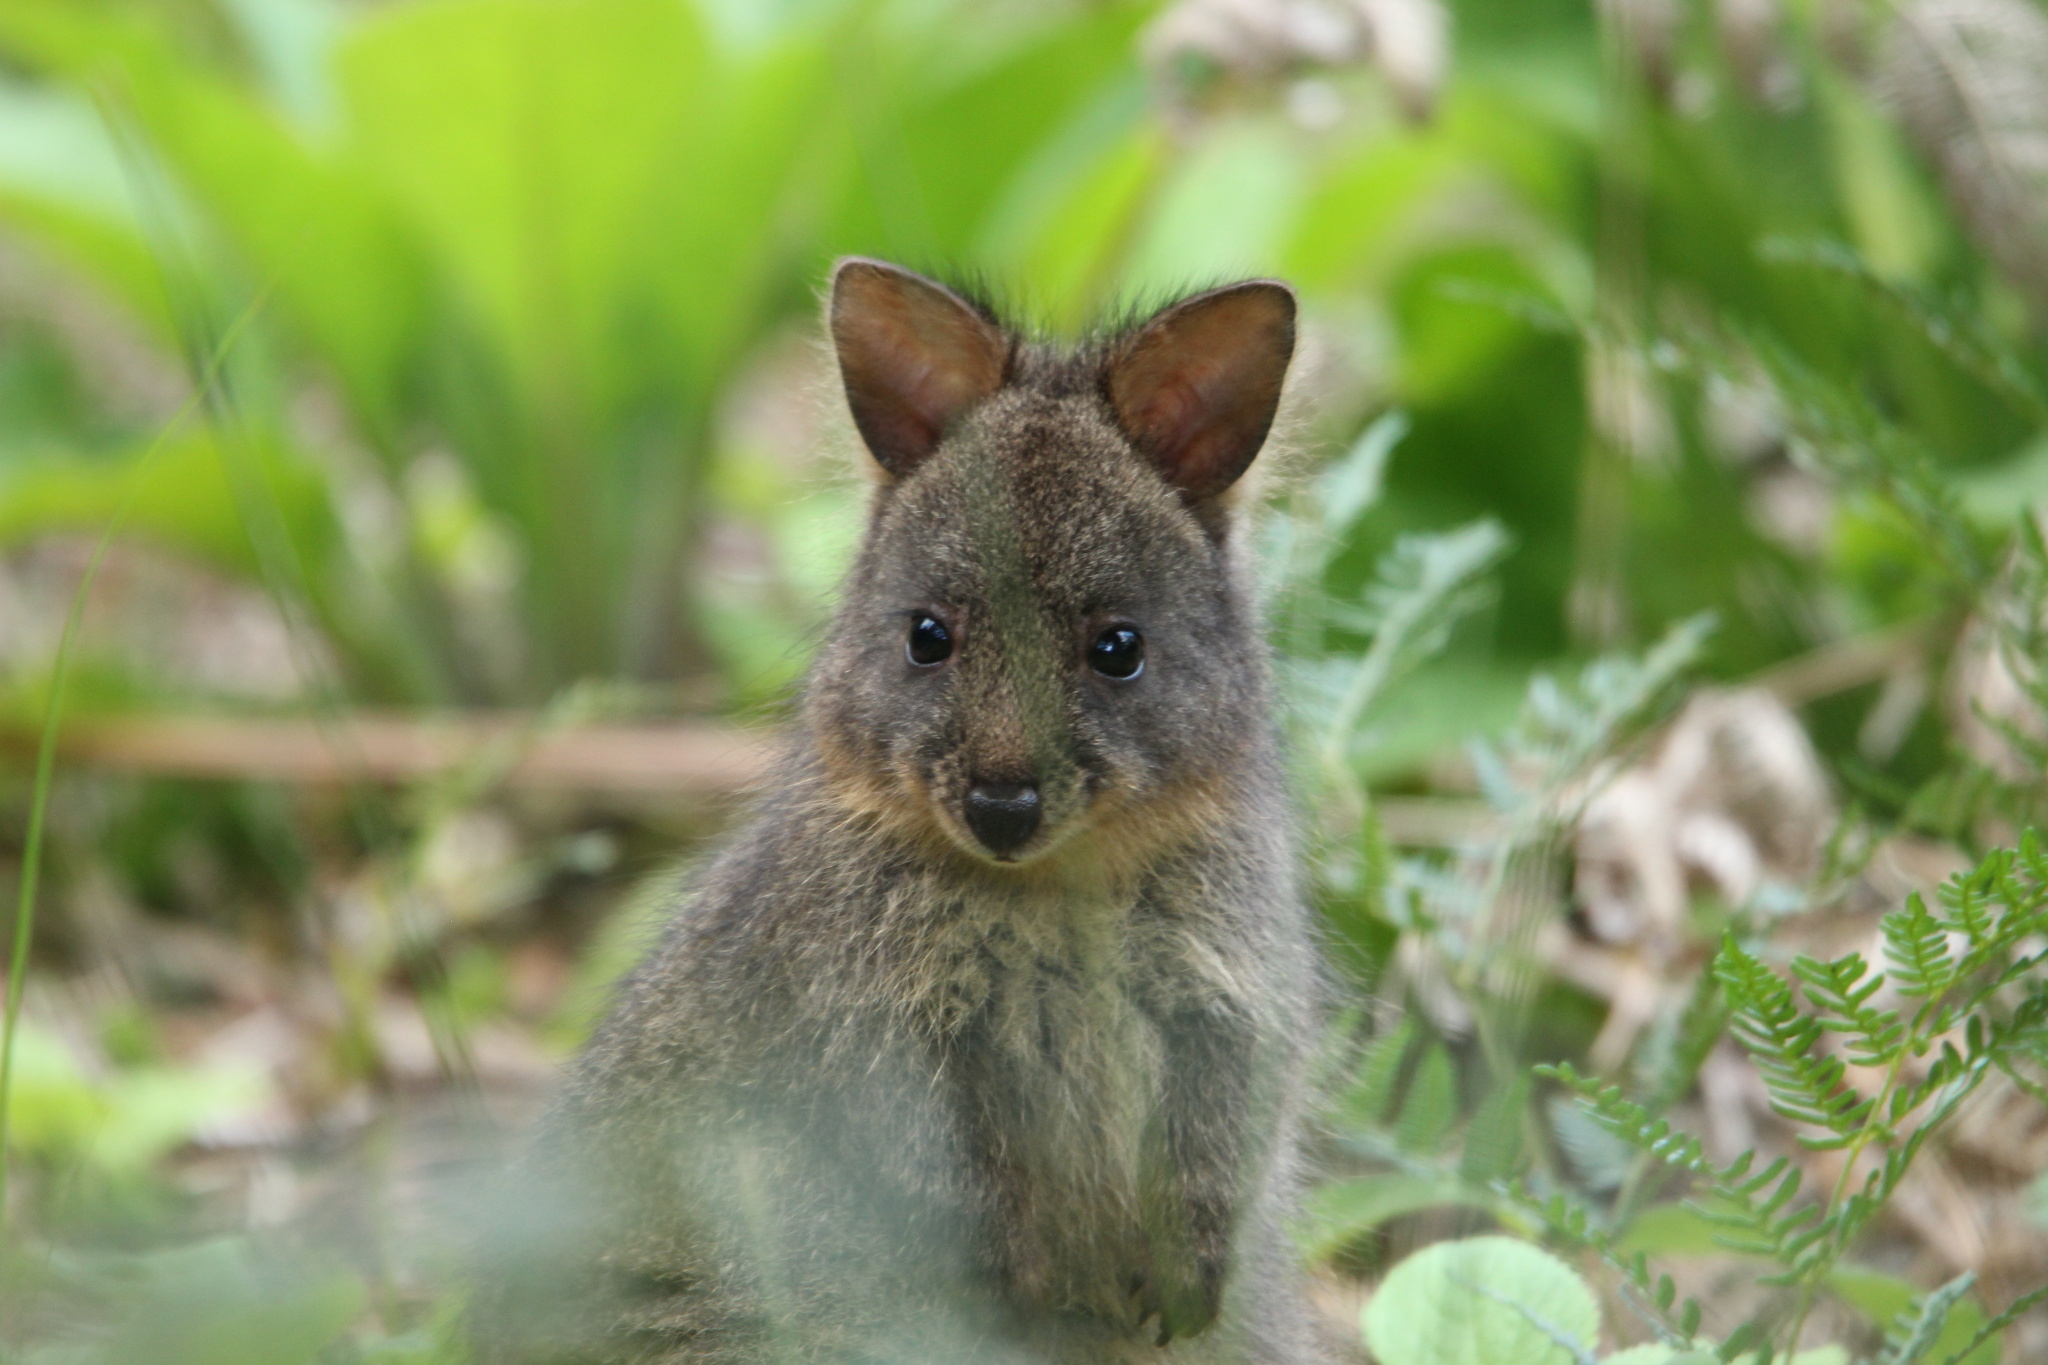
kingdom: Animalia
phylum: Chordata
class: Mammalia
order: Diprotodontia
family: Macropodidae
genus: Thylogale
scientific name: Thylogale billardierii
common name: Tasmanian pademelon
